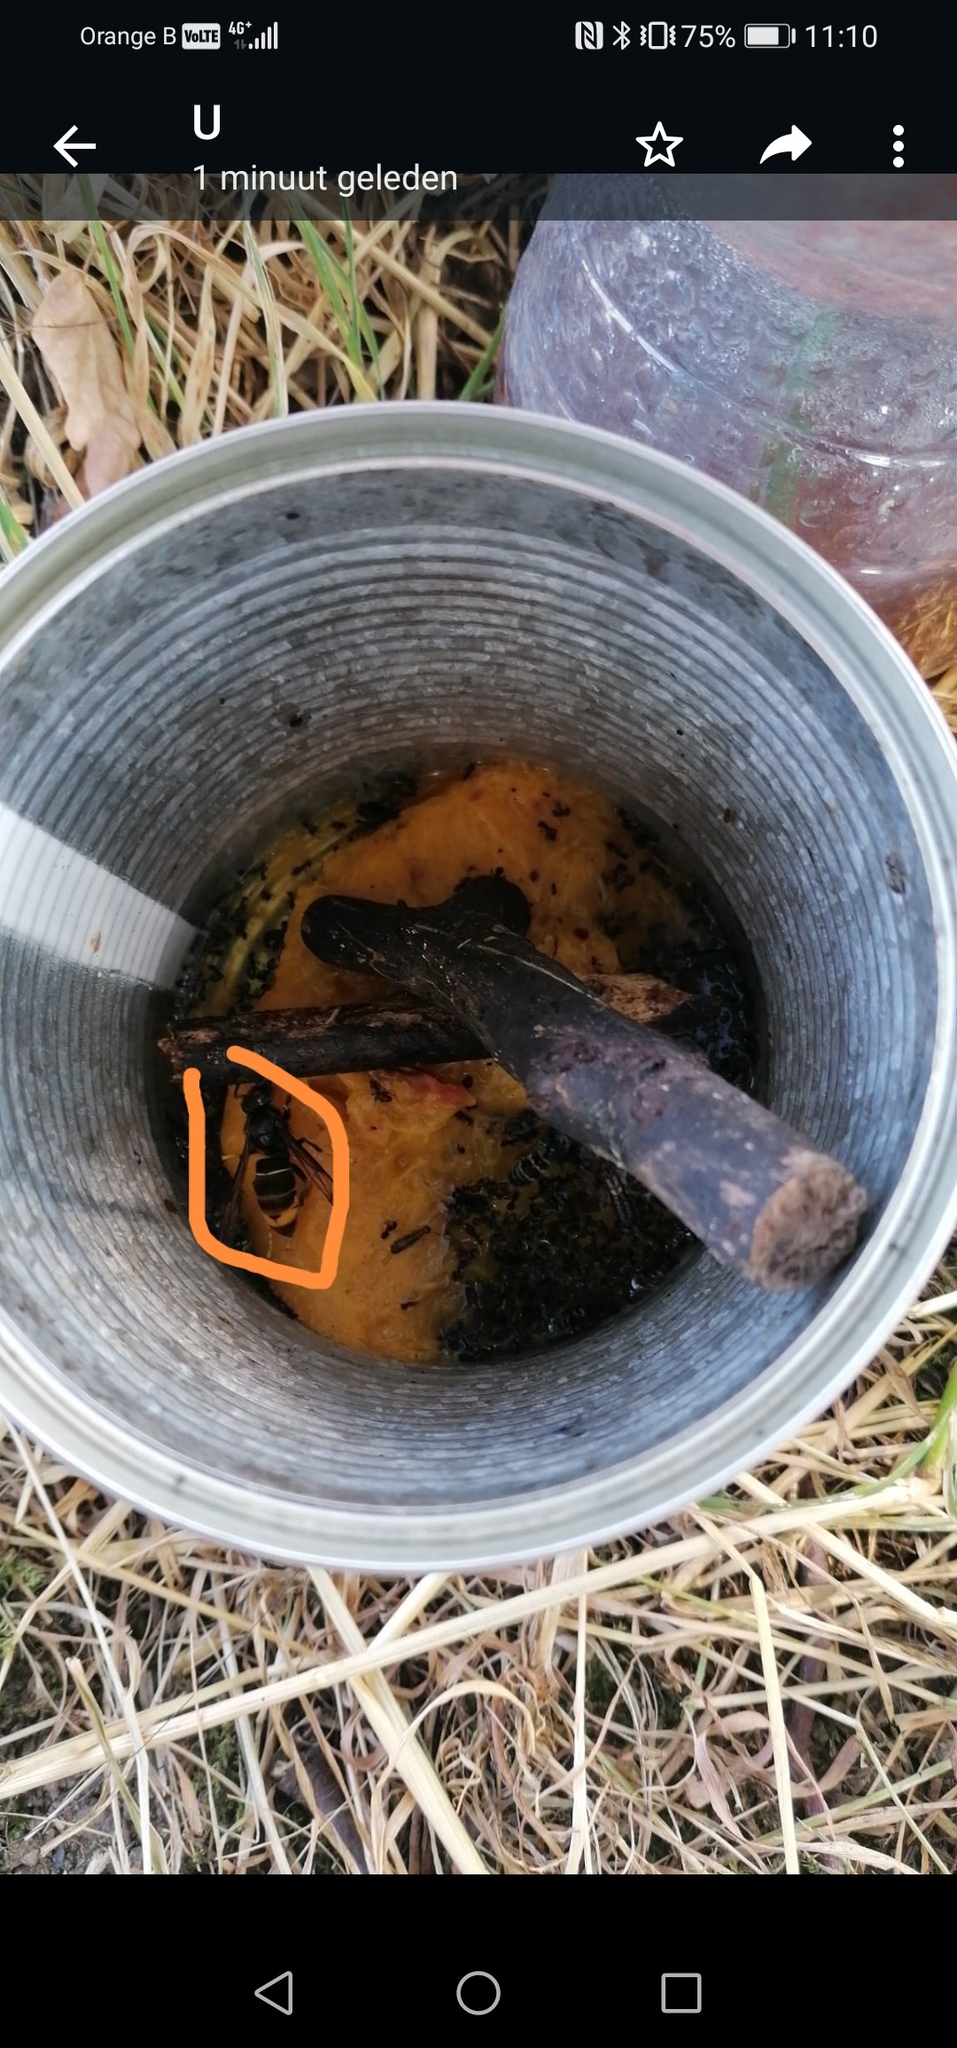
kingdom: Animalia
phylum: Arthropoda
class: Insecta
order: Hymenoptera
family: Vespidae
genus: Vespa
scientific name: Vespa velutina
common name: Asian hornet
